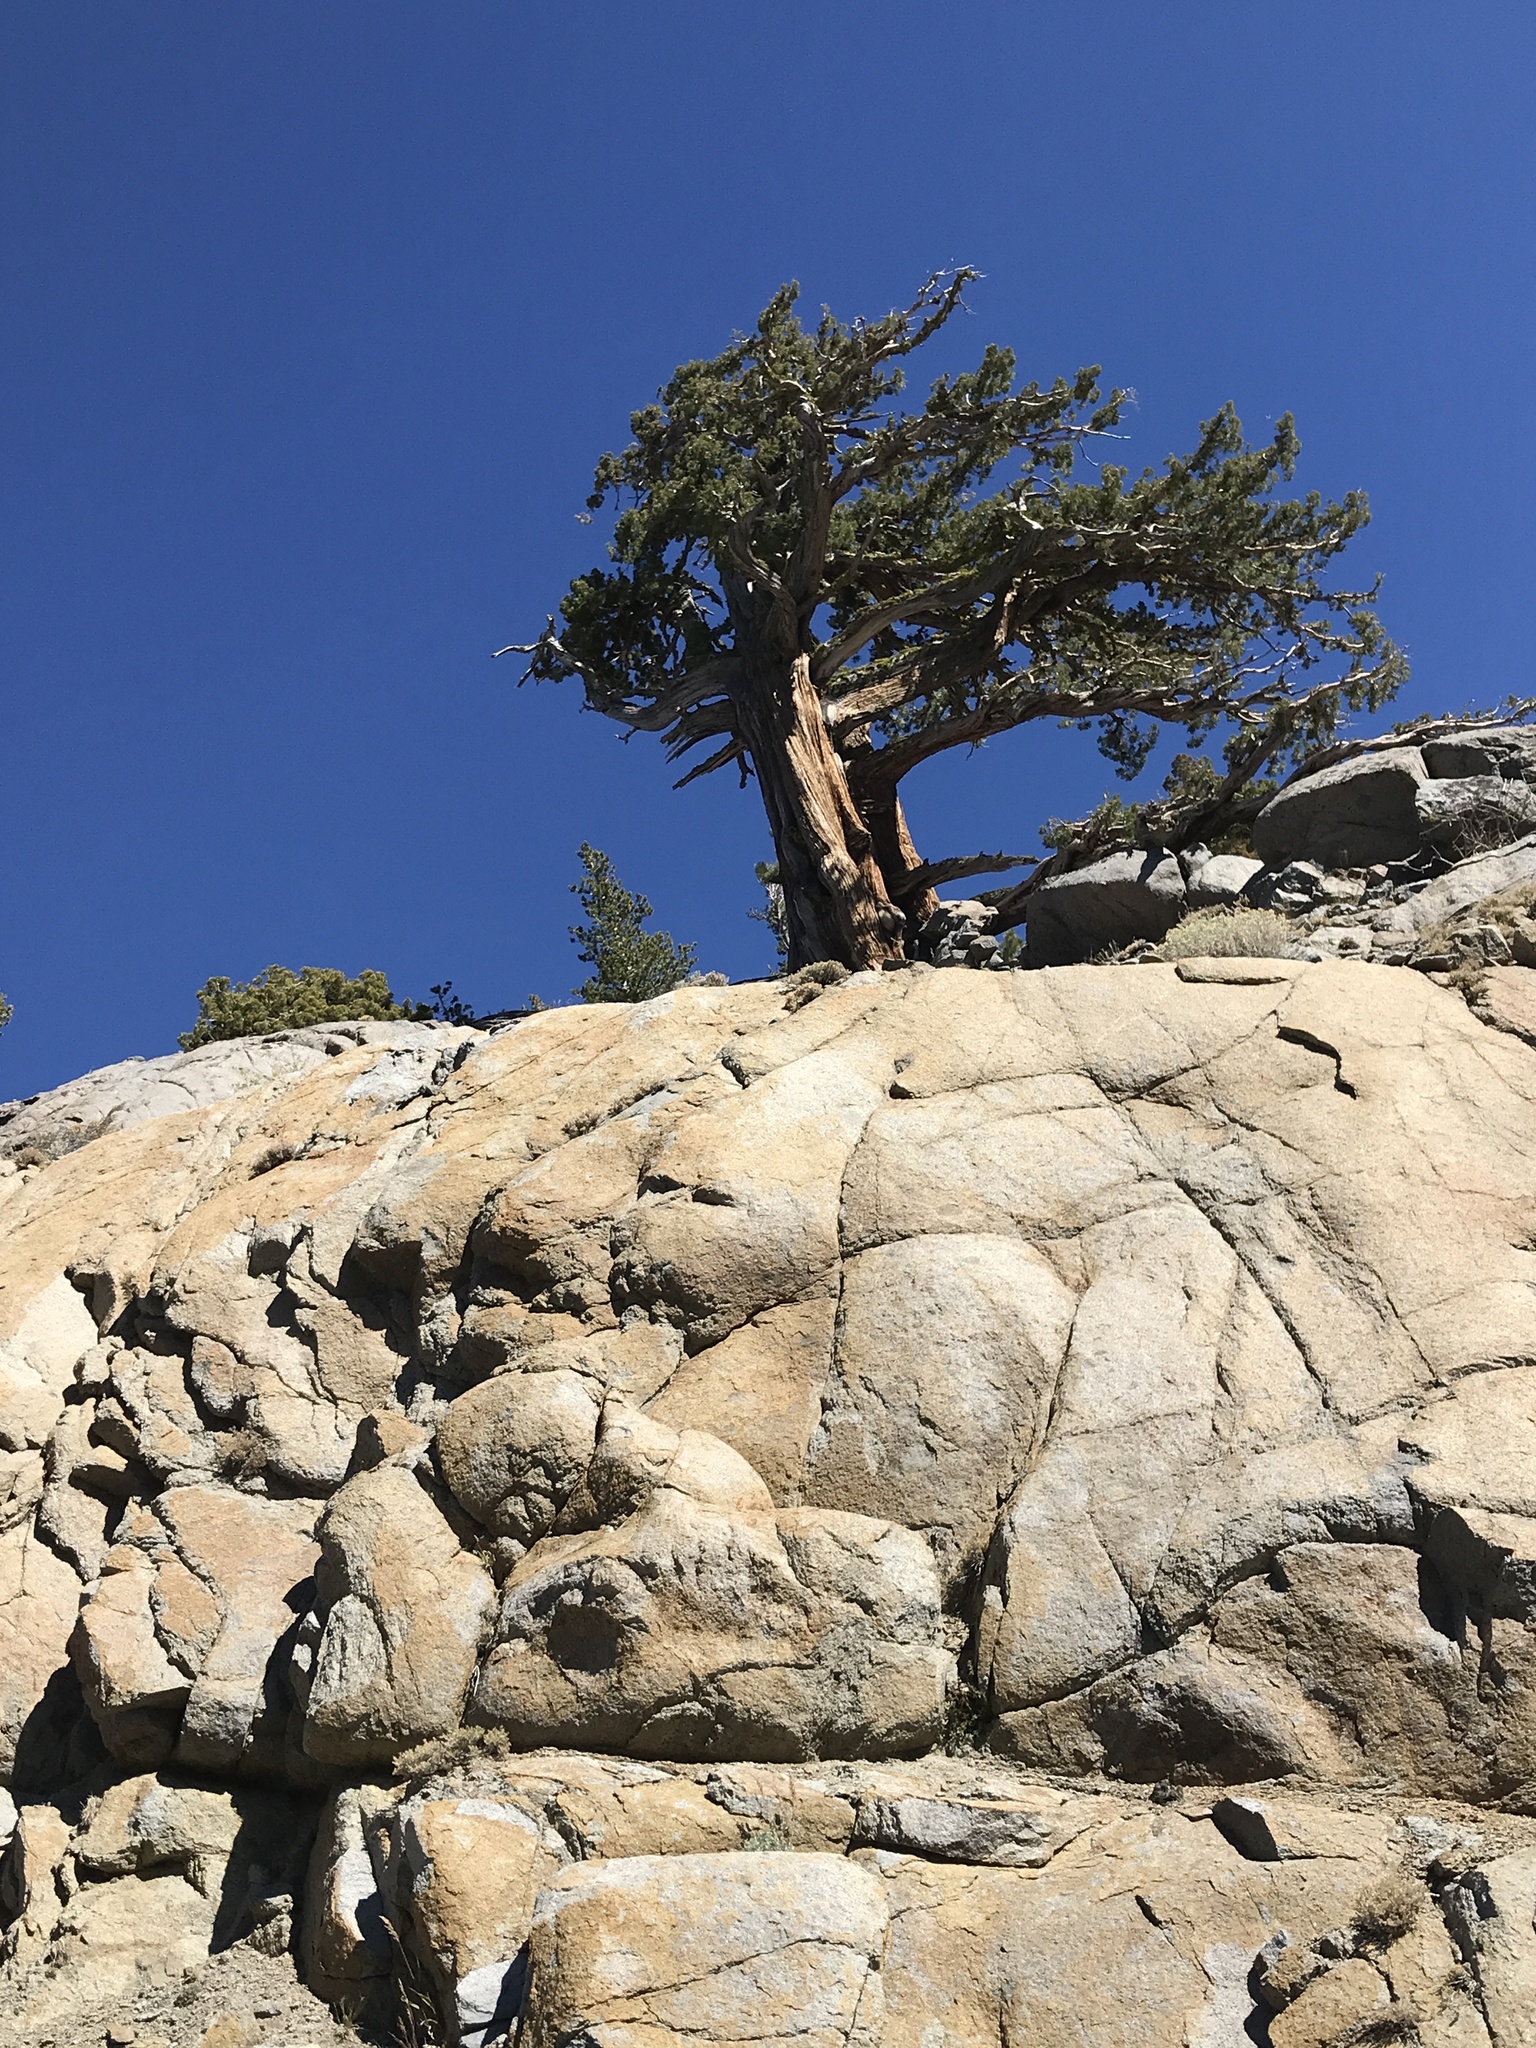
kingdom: Plantae
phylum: Tracheophyta
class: Pinopsida
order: Pinales
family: Cupressaceae
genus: Juniperus
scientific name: Juniperus occidentalis
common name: Western juniper
